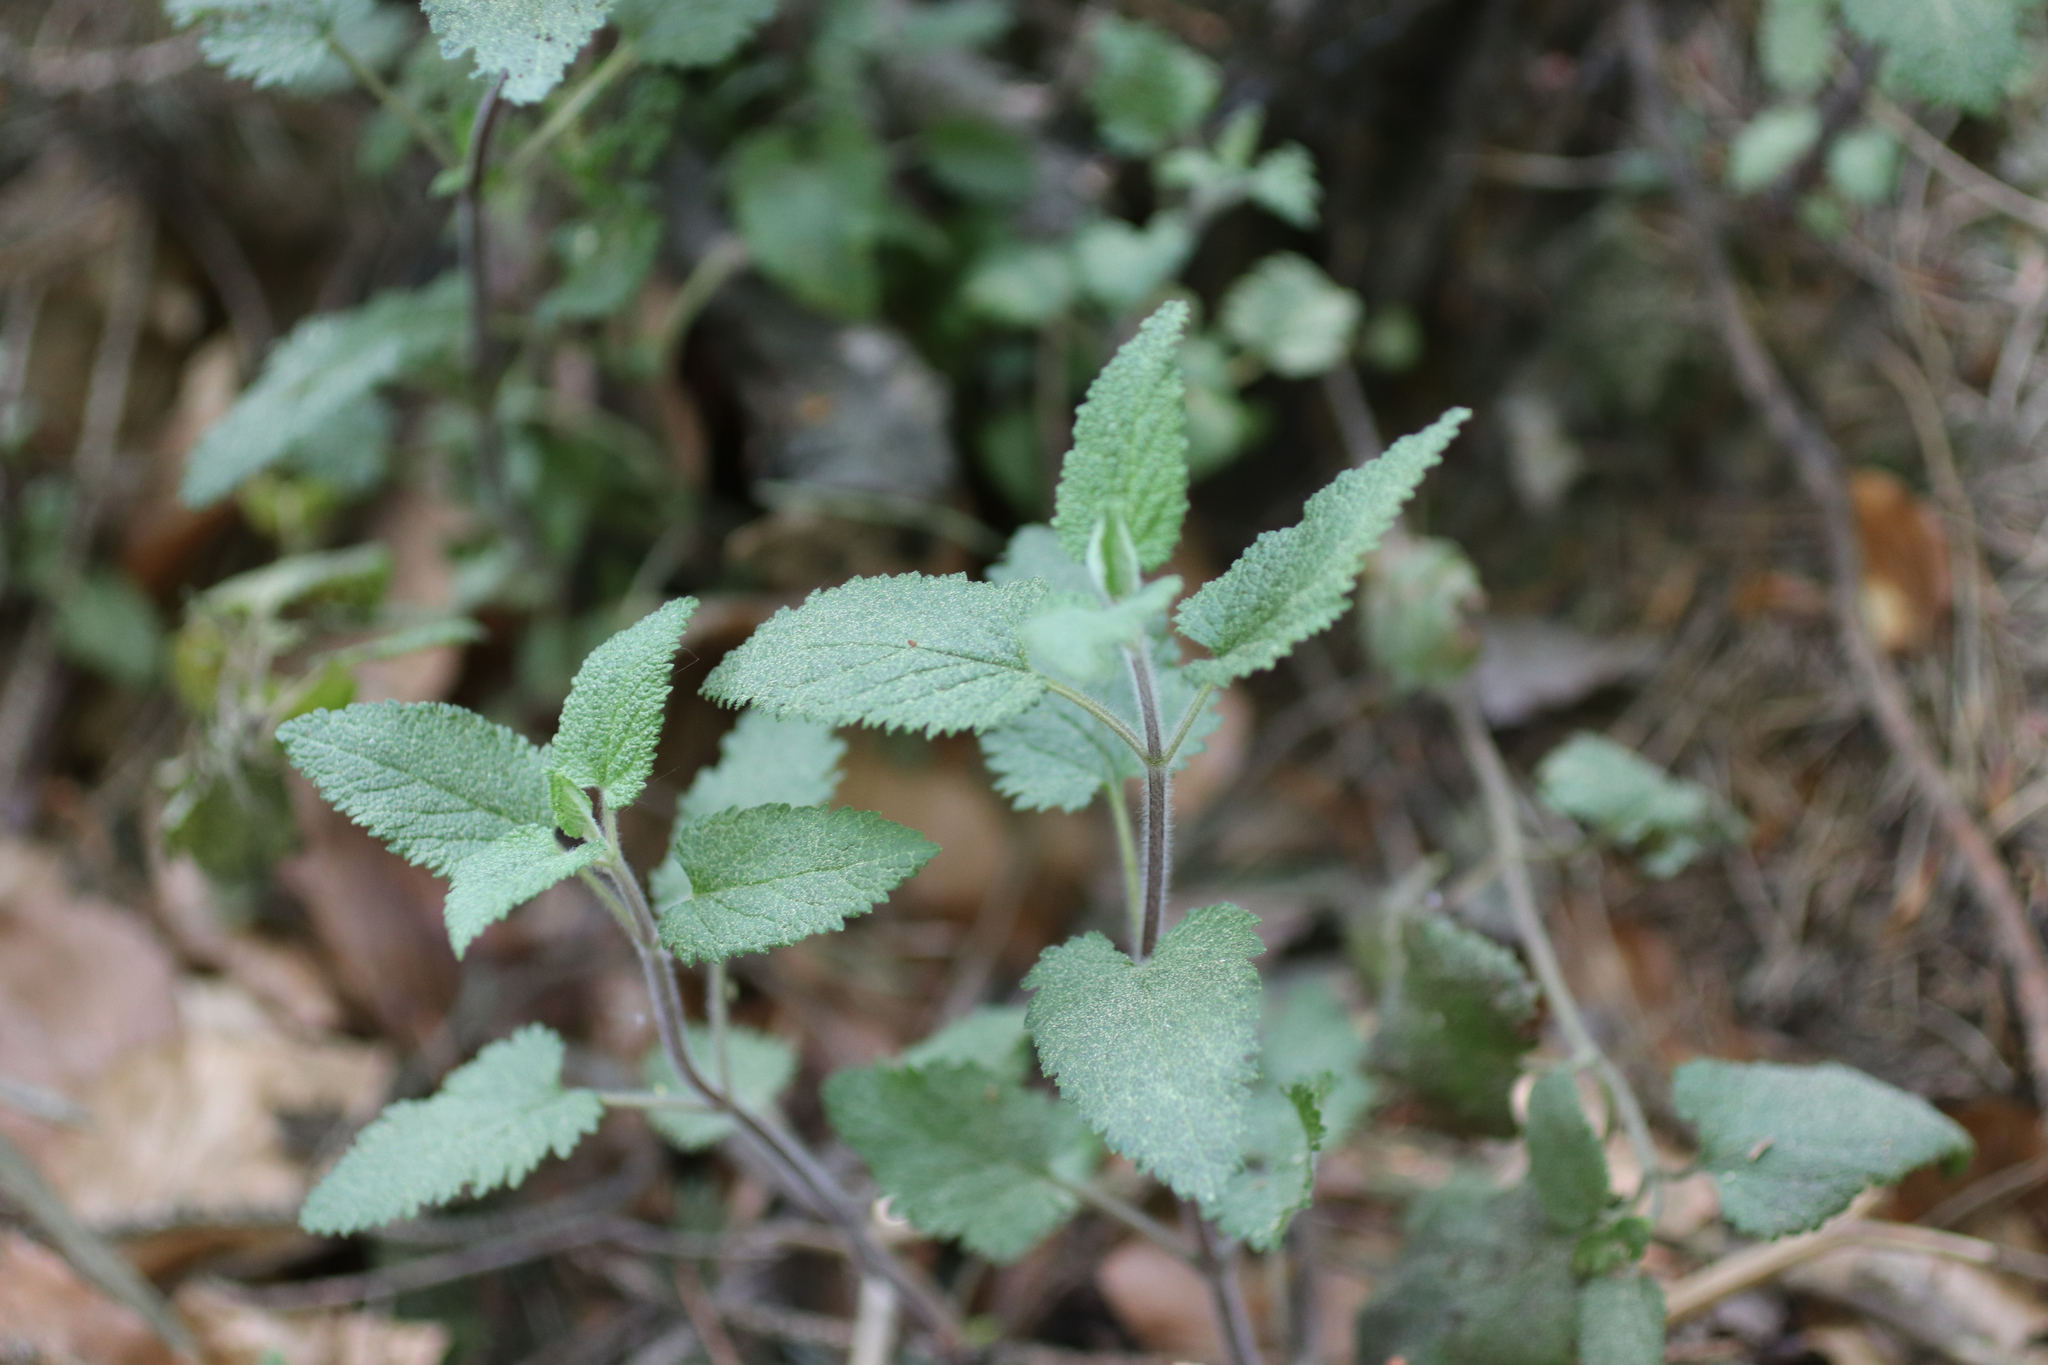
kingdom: Plantae
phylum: Tracheophyta
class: Magnoliopsida
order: Lamiales
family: Lamiaceae
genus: Teucrium
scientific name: Teucrium scorodonia
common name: Woodland germander
